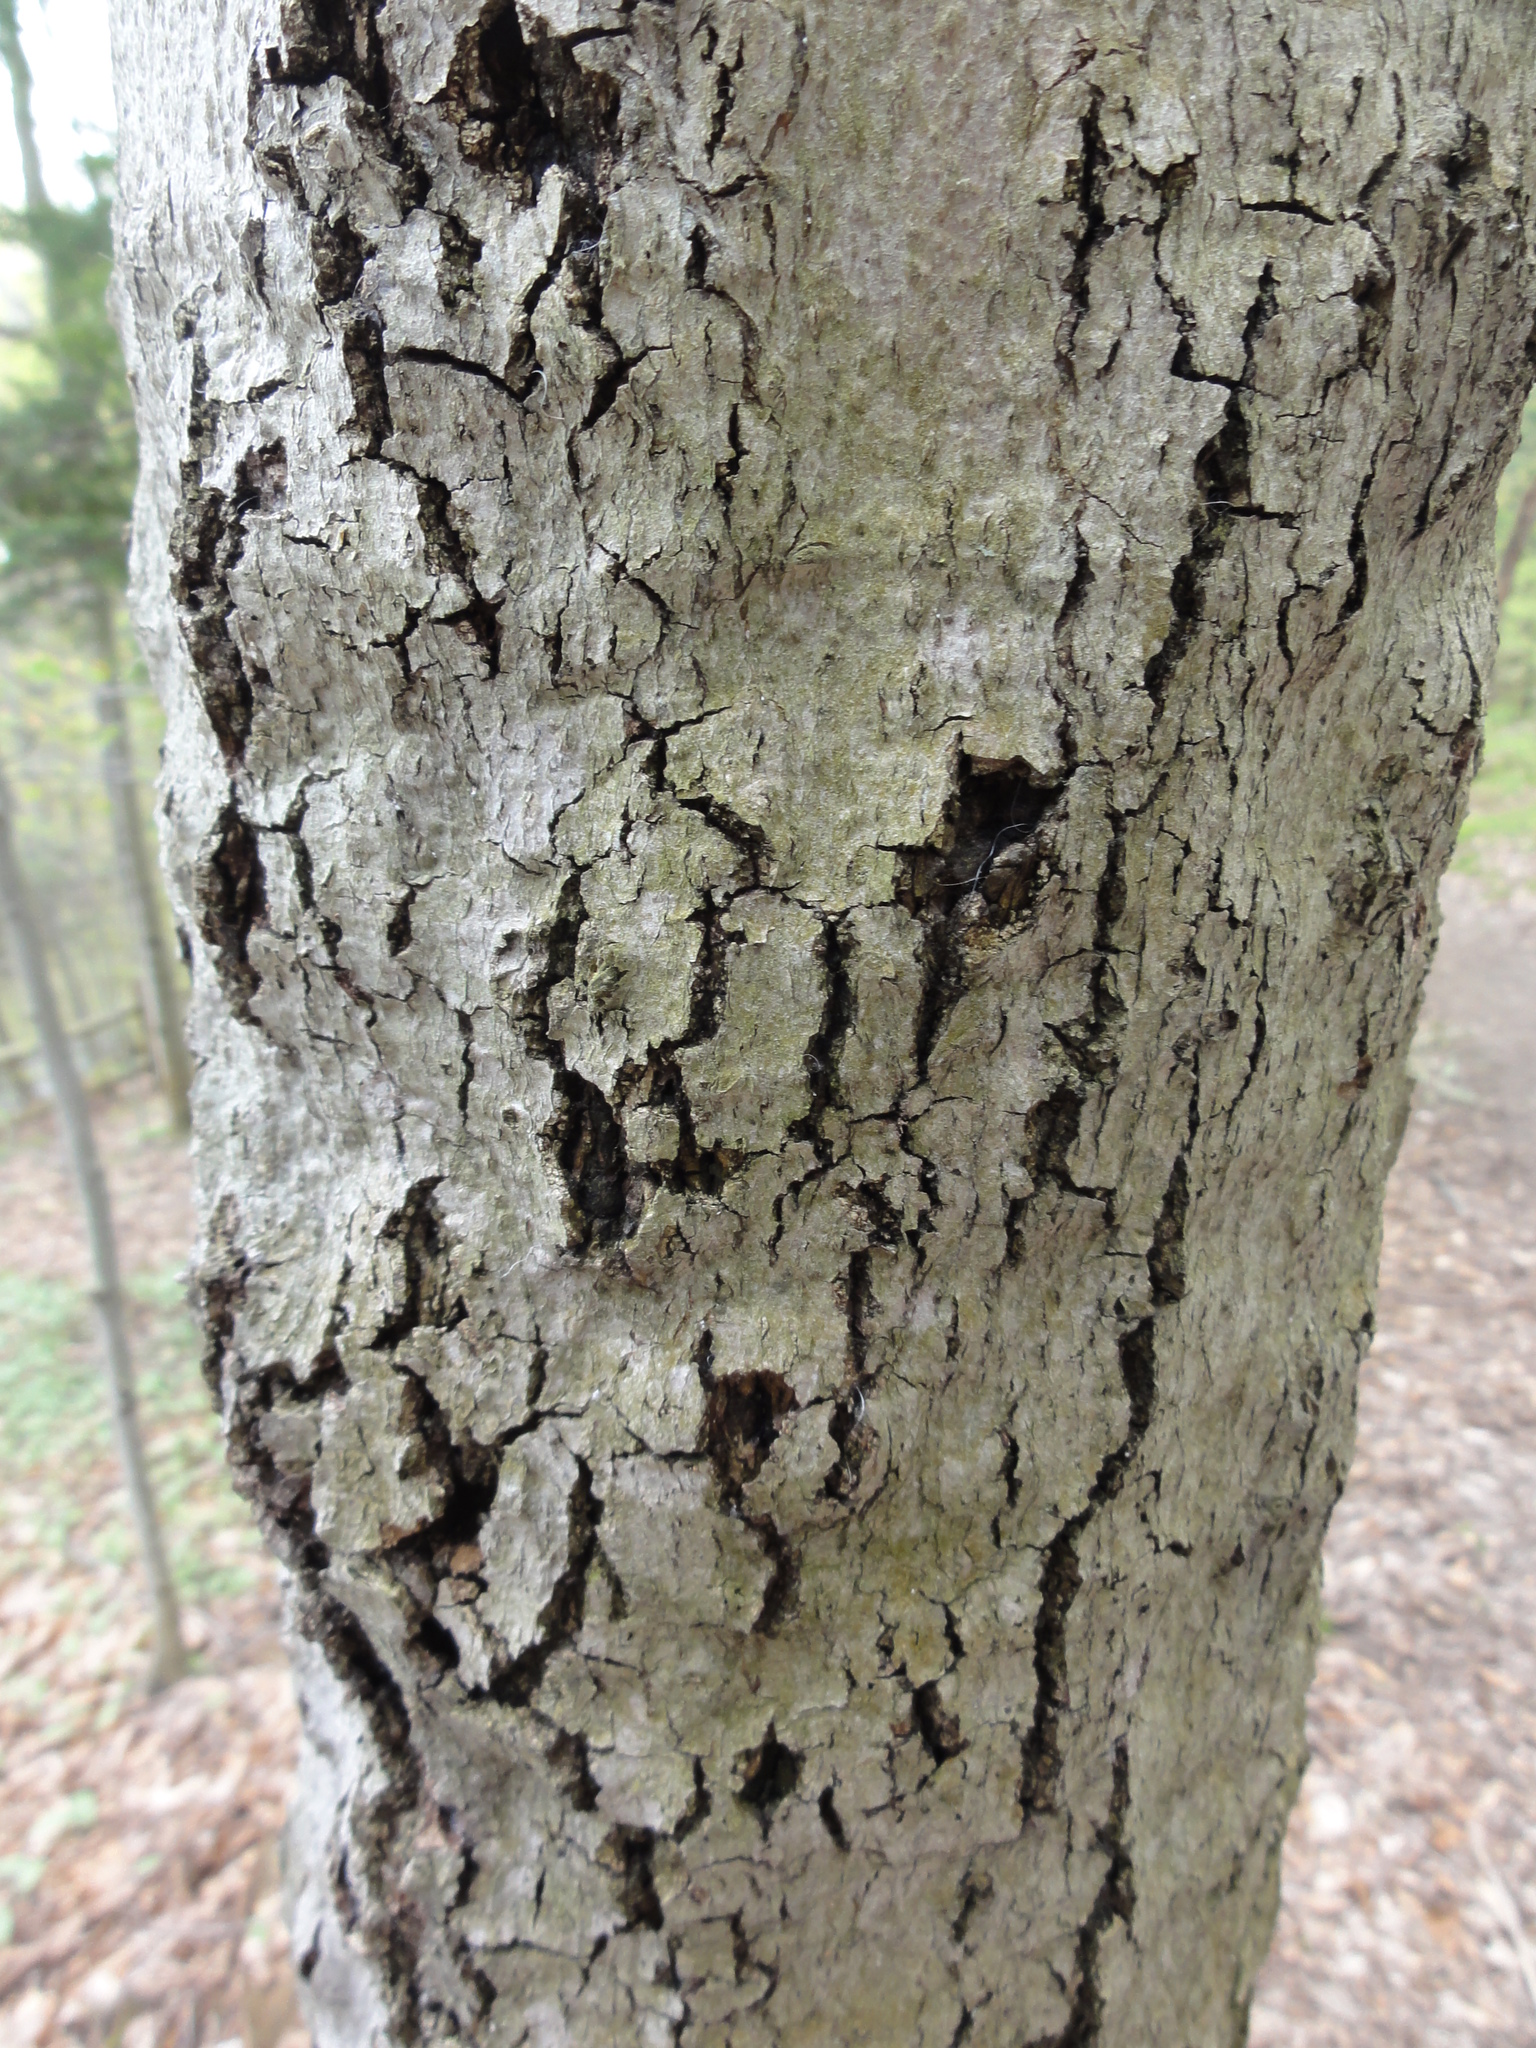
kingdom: Plantae
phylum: Tracheophyta
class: Magnoliopsida
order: Fagales
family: Fagaceae
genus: Fagus
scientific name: Fagus grandifolia
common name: American beech
